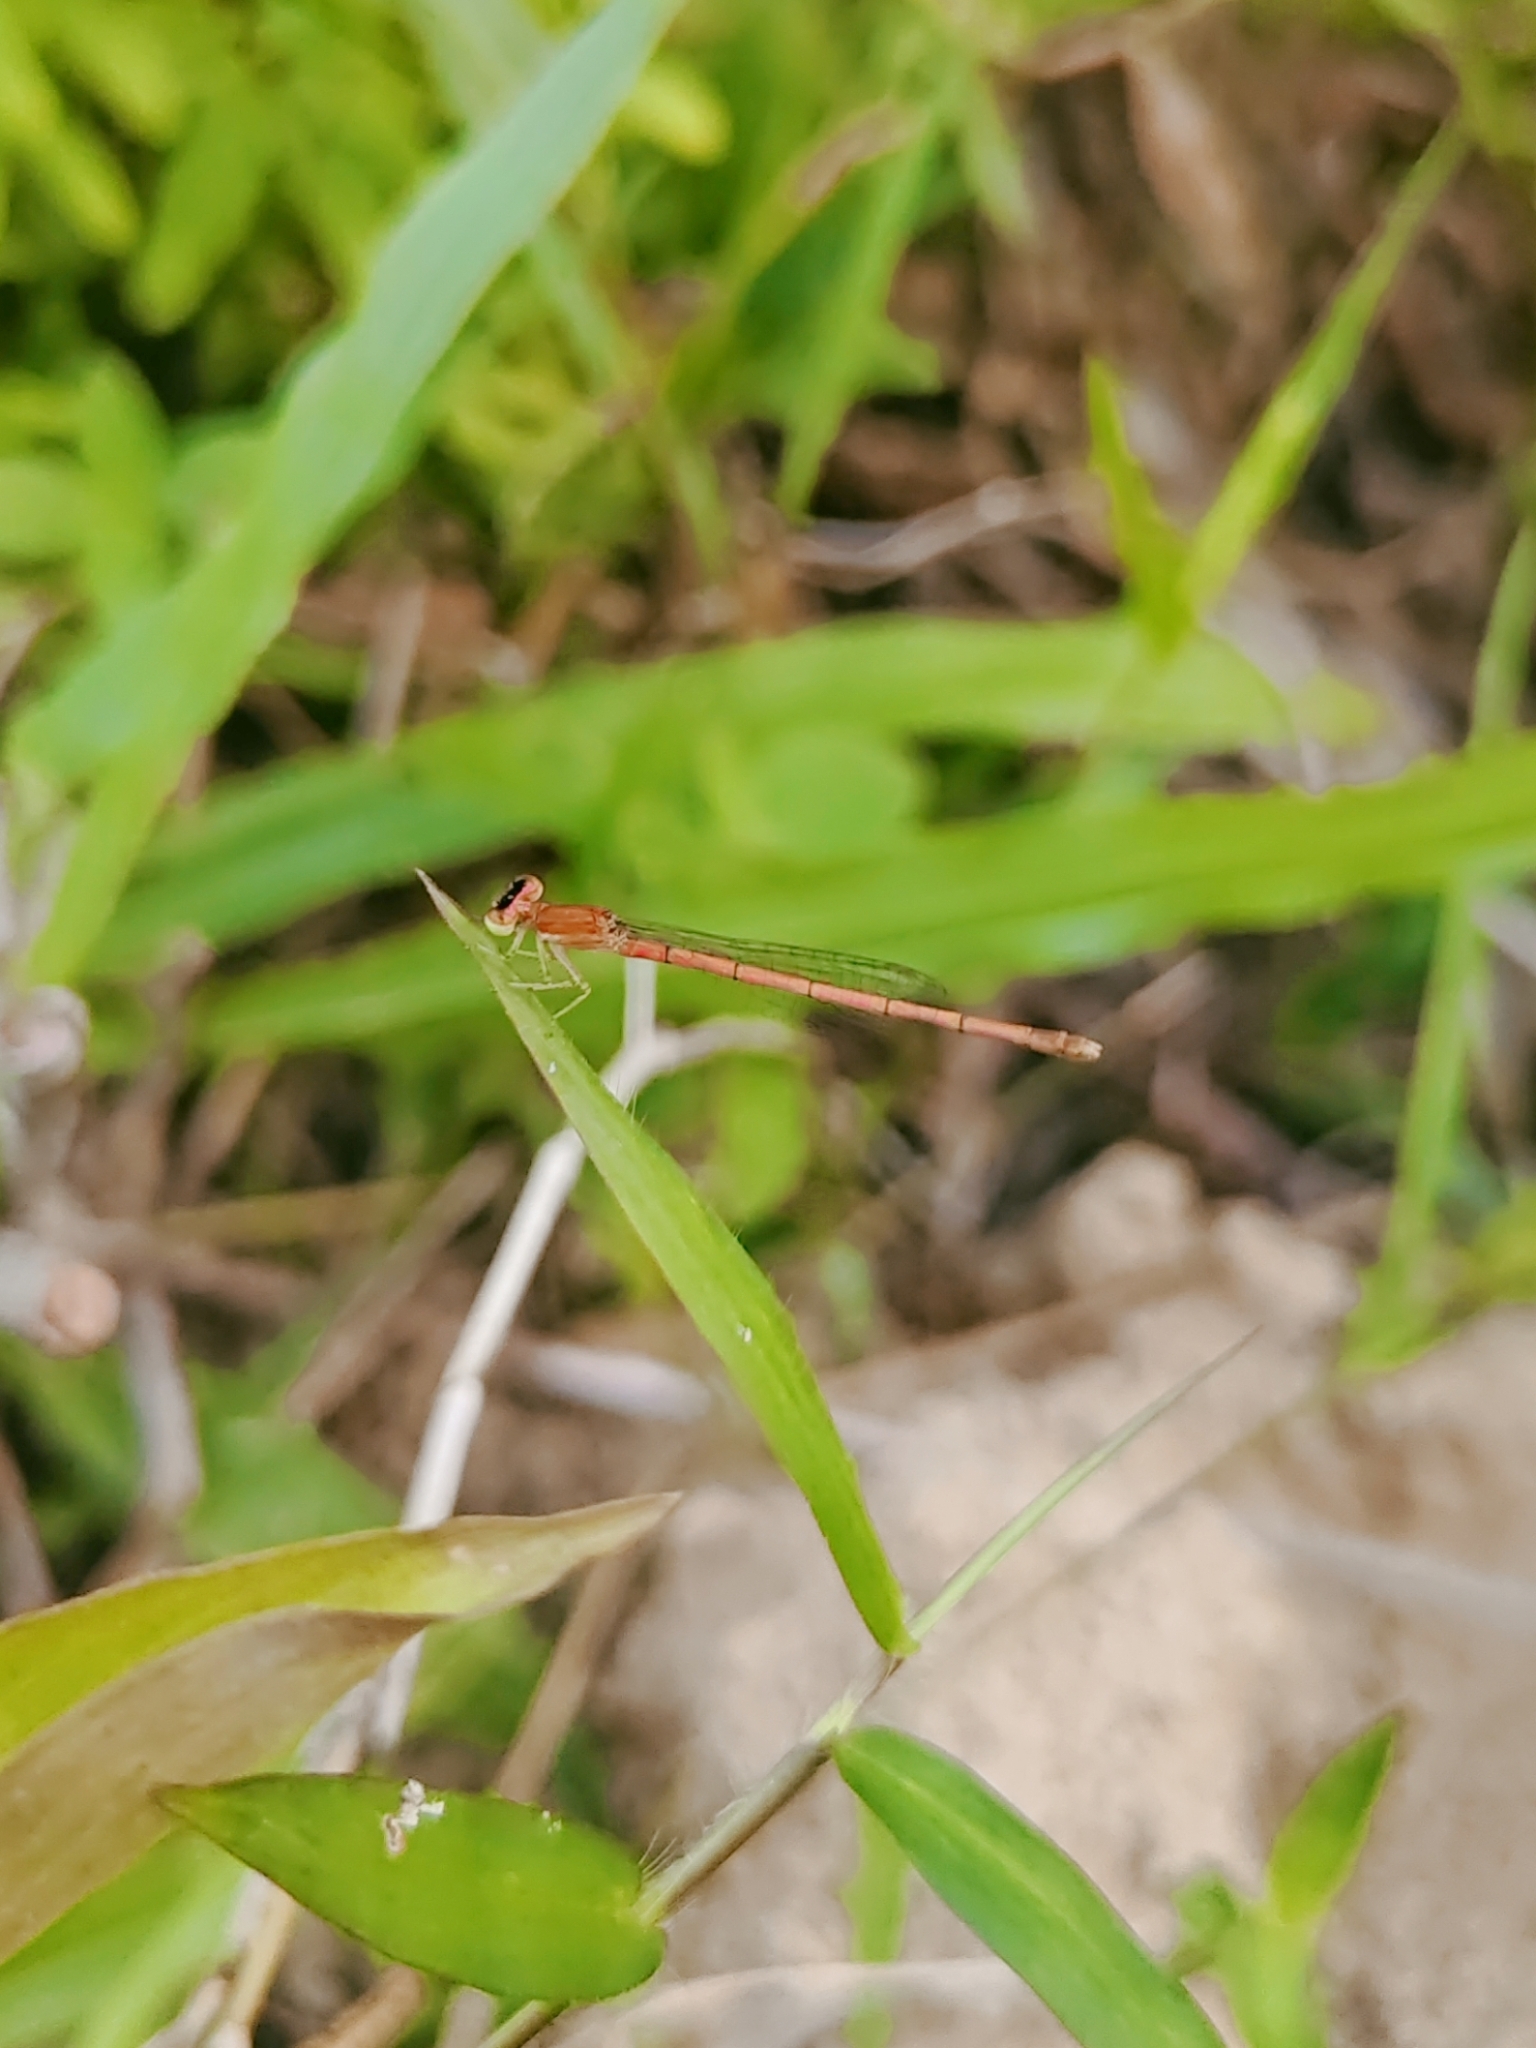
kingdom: Animalia
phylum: Arthropoda
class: Insecta
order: Odonata
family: Coenagrionidae
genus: Agriocnemis
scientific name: Agriocnemis lacteola
